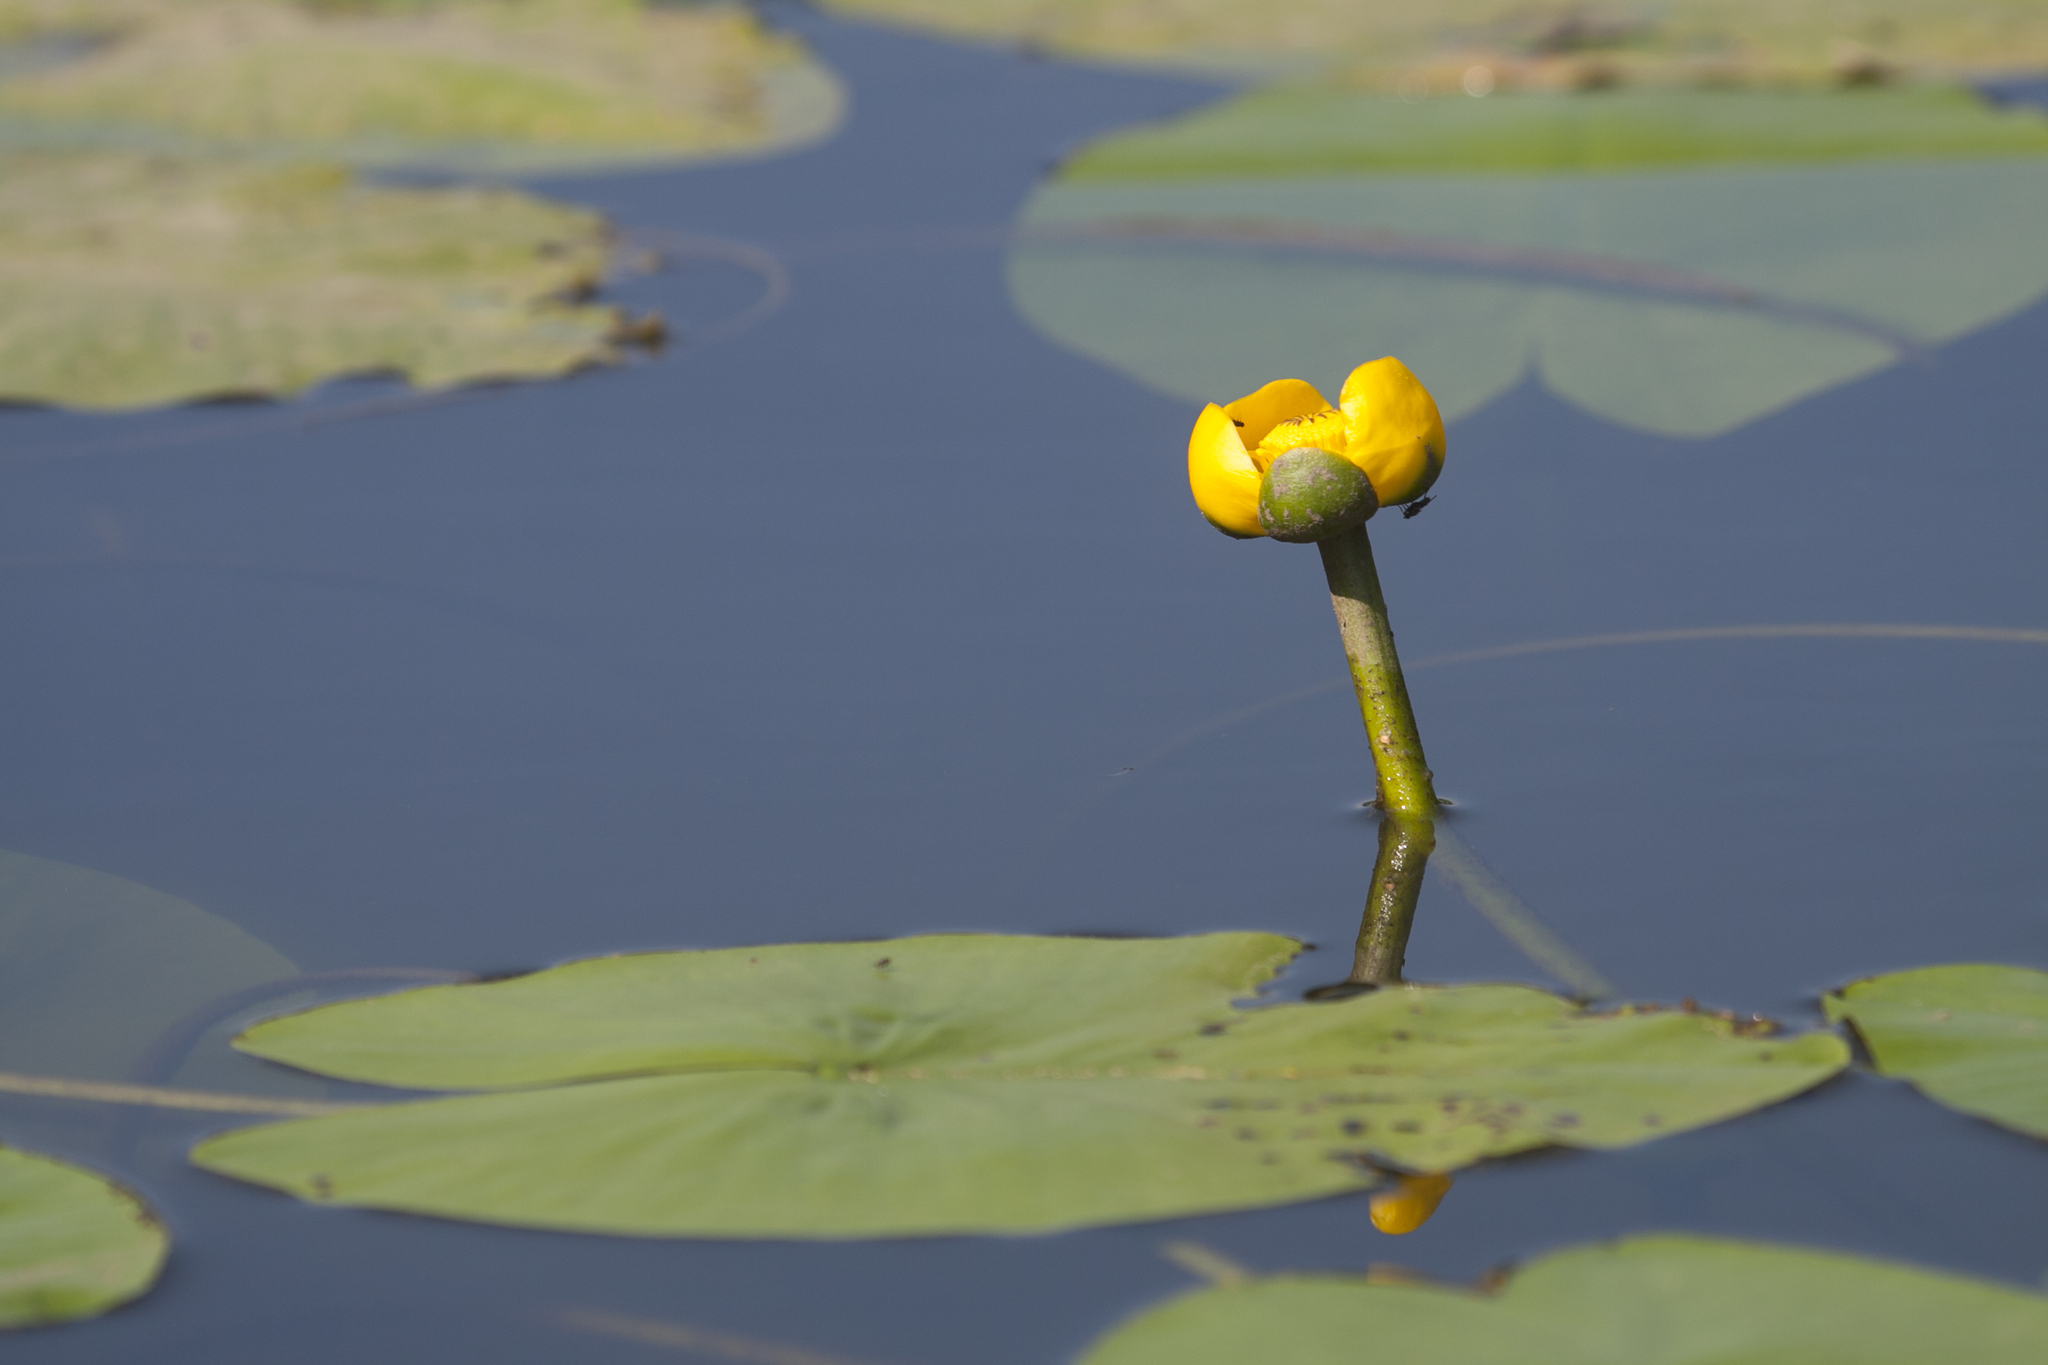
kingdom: Plantae
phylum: Tracheophyta
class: Magnoliopsida
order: Nymphaeales
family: Nymphaeaceae
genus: Nuphar
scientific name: Nuphar lutea
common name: Yellow water-lily
